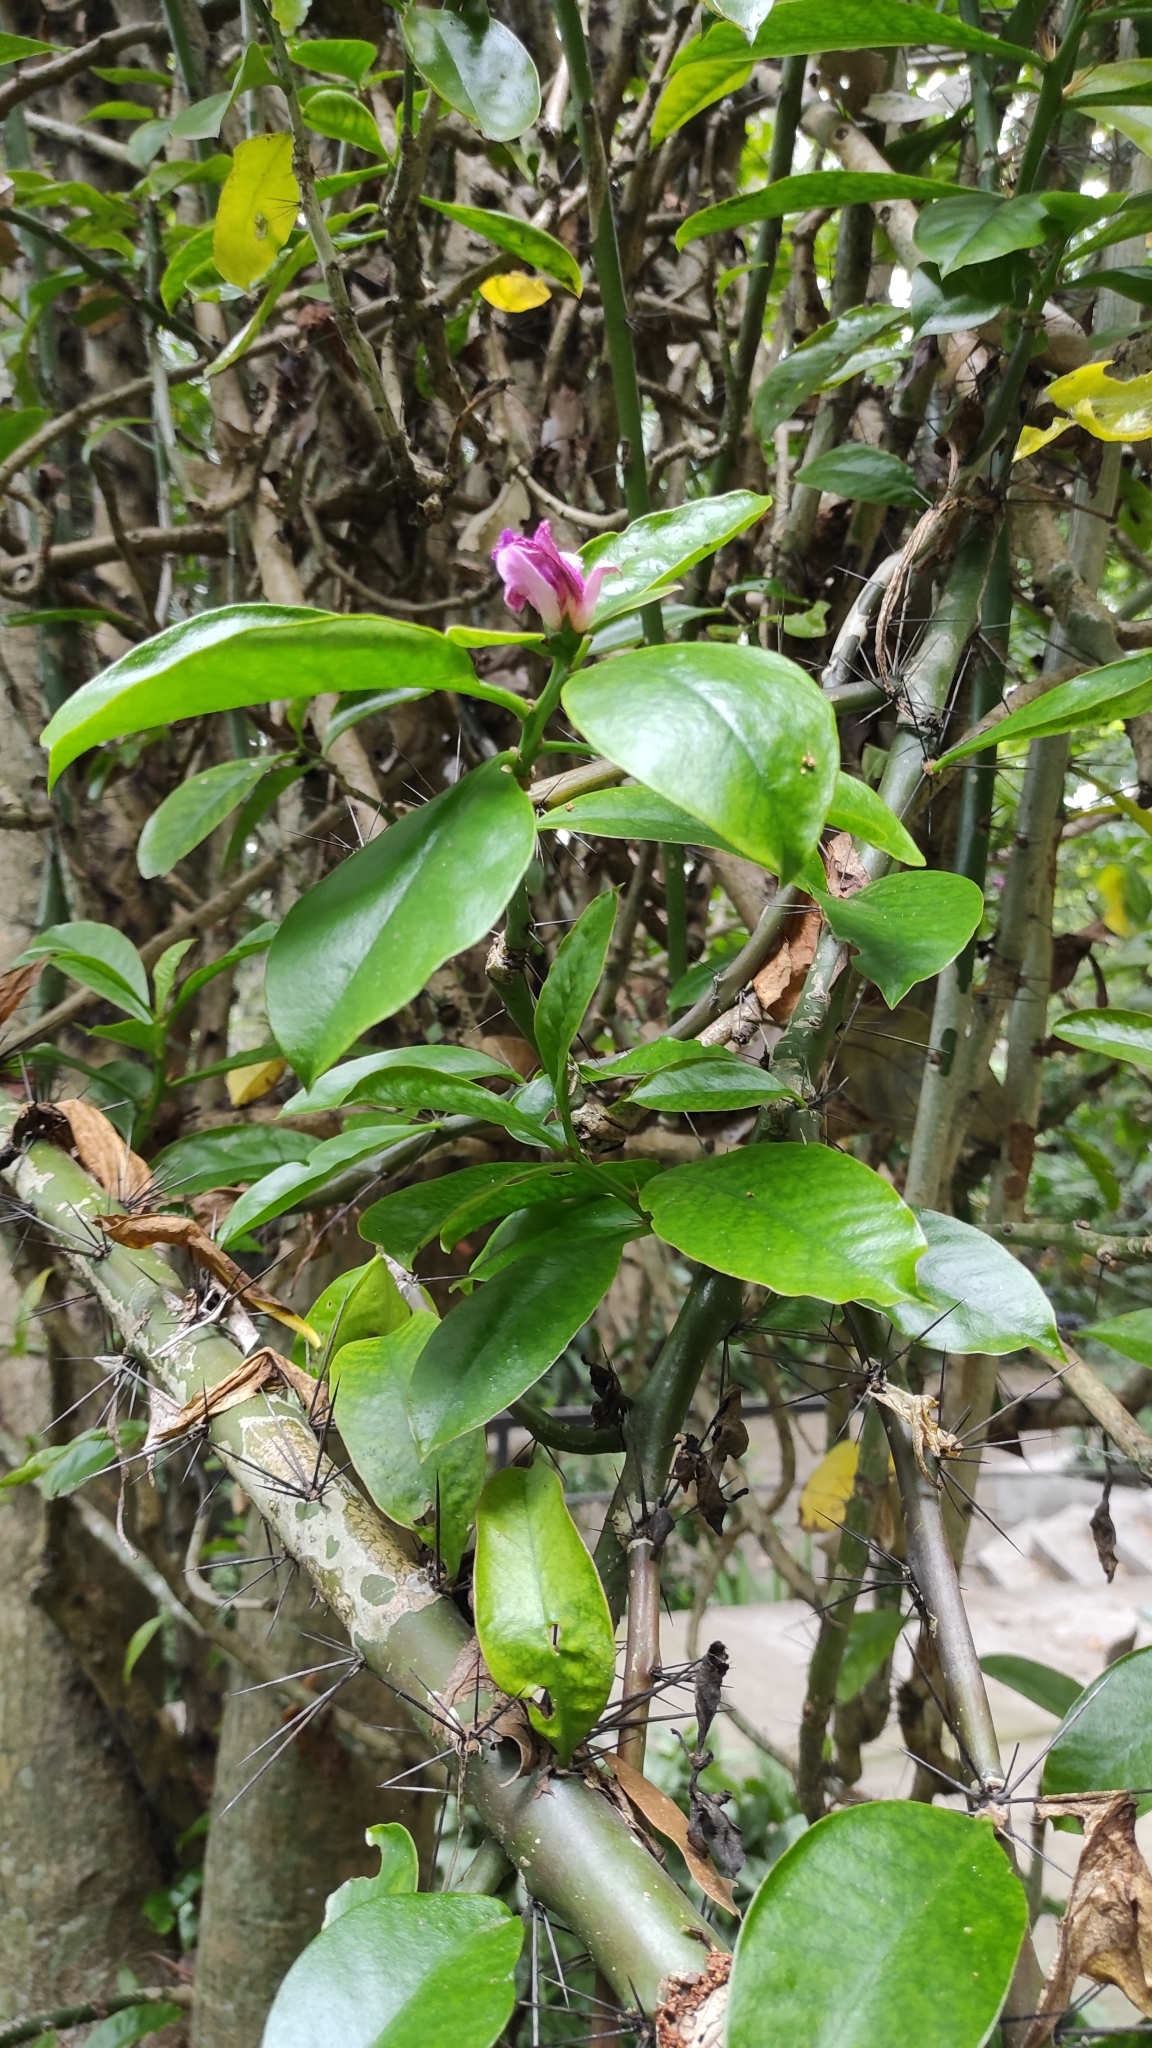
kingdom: Plantae
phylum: Tracheophyta
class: Magnoliopsida
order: Caryophyllales
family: Cactaceae
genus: Pereskia
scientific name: Pereskia grandifolia
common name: Rose cactus
